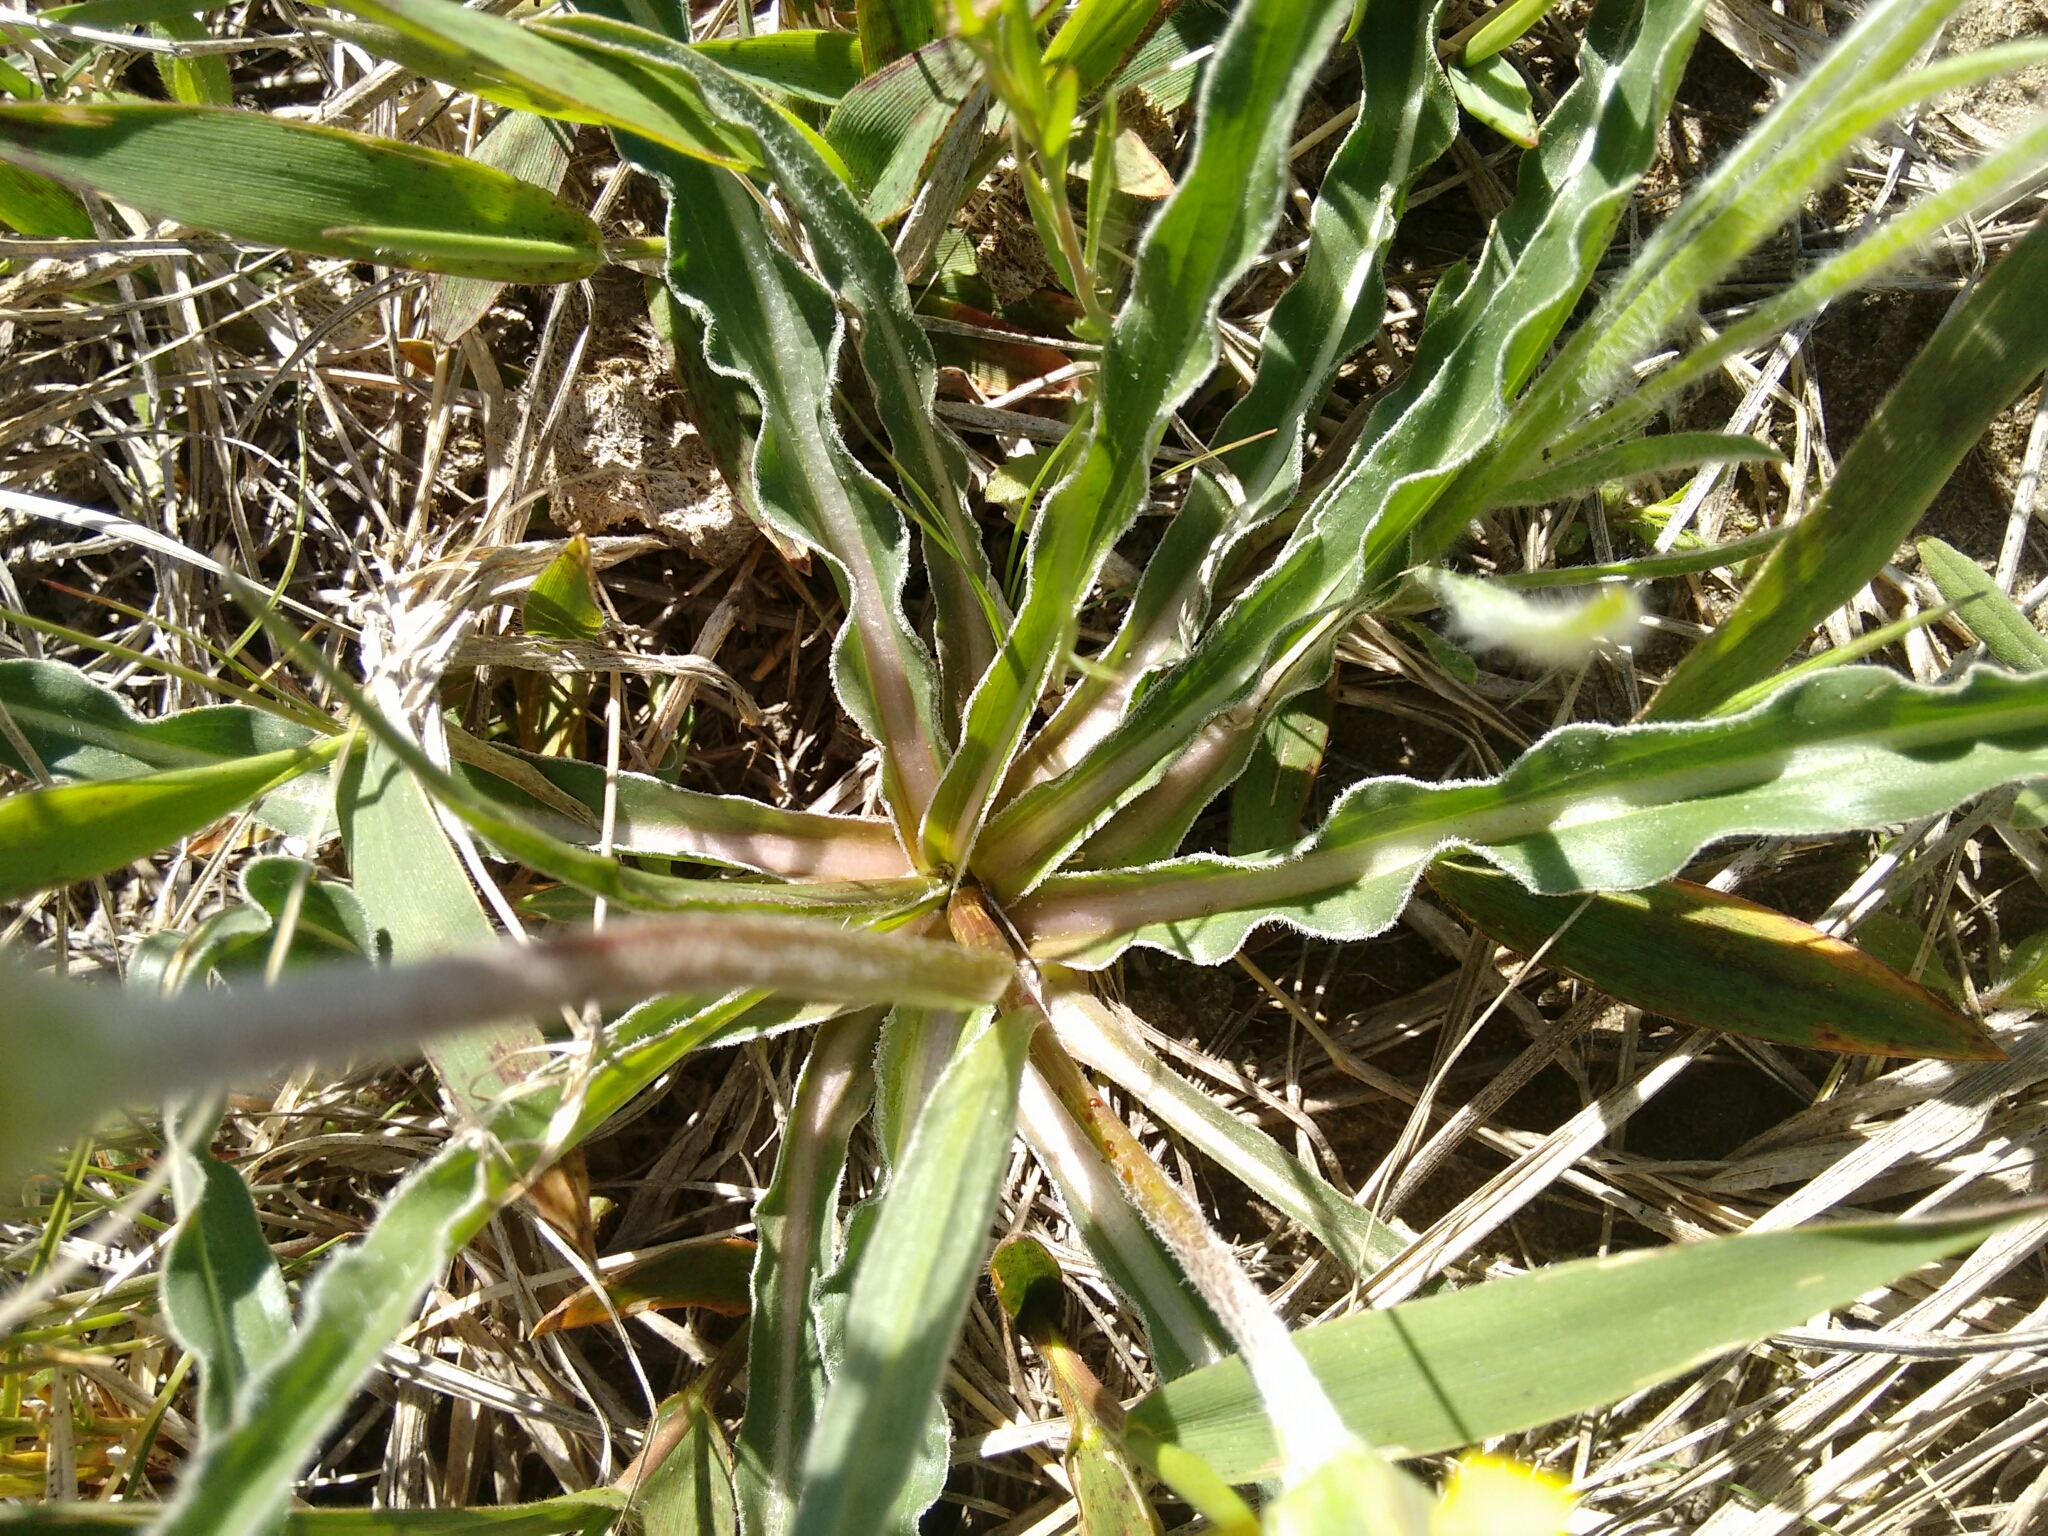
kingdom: Plantae
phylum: Tracheophyta
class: Magnoliopsida
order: Asterales
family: Asteraceae
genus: Microseris
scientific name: Microseris cuspidata
